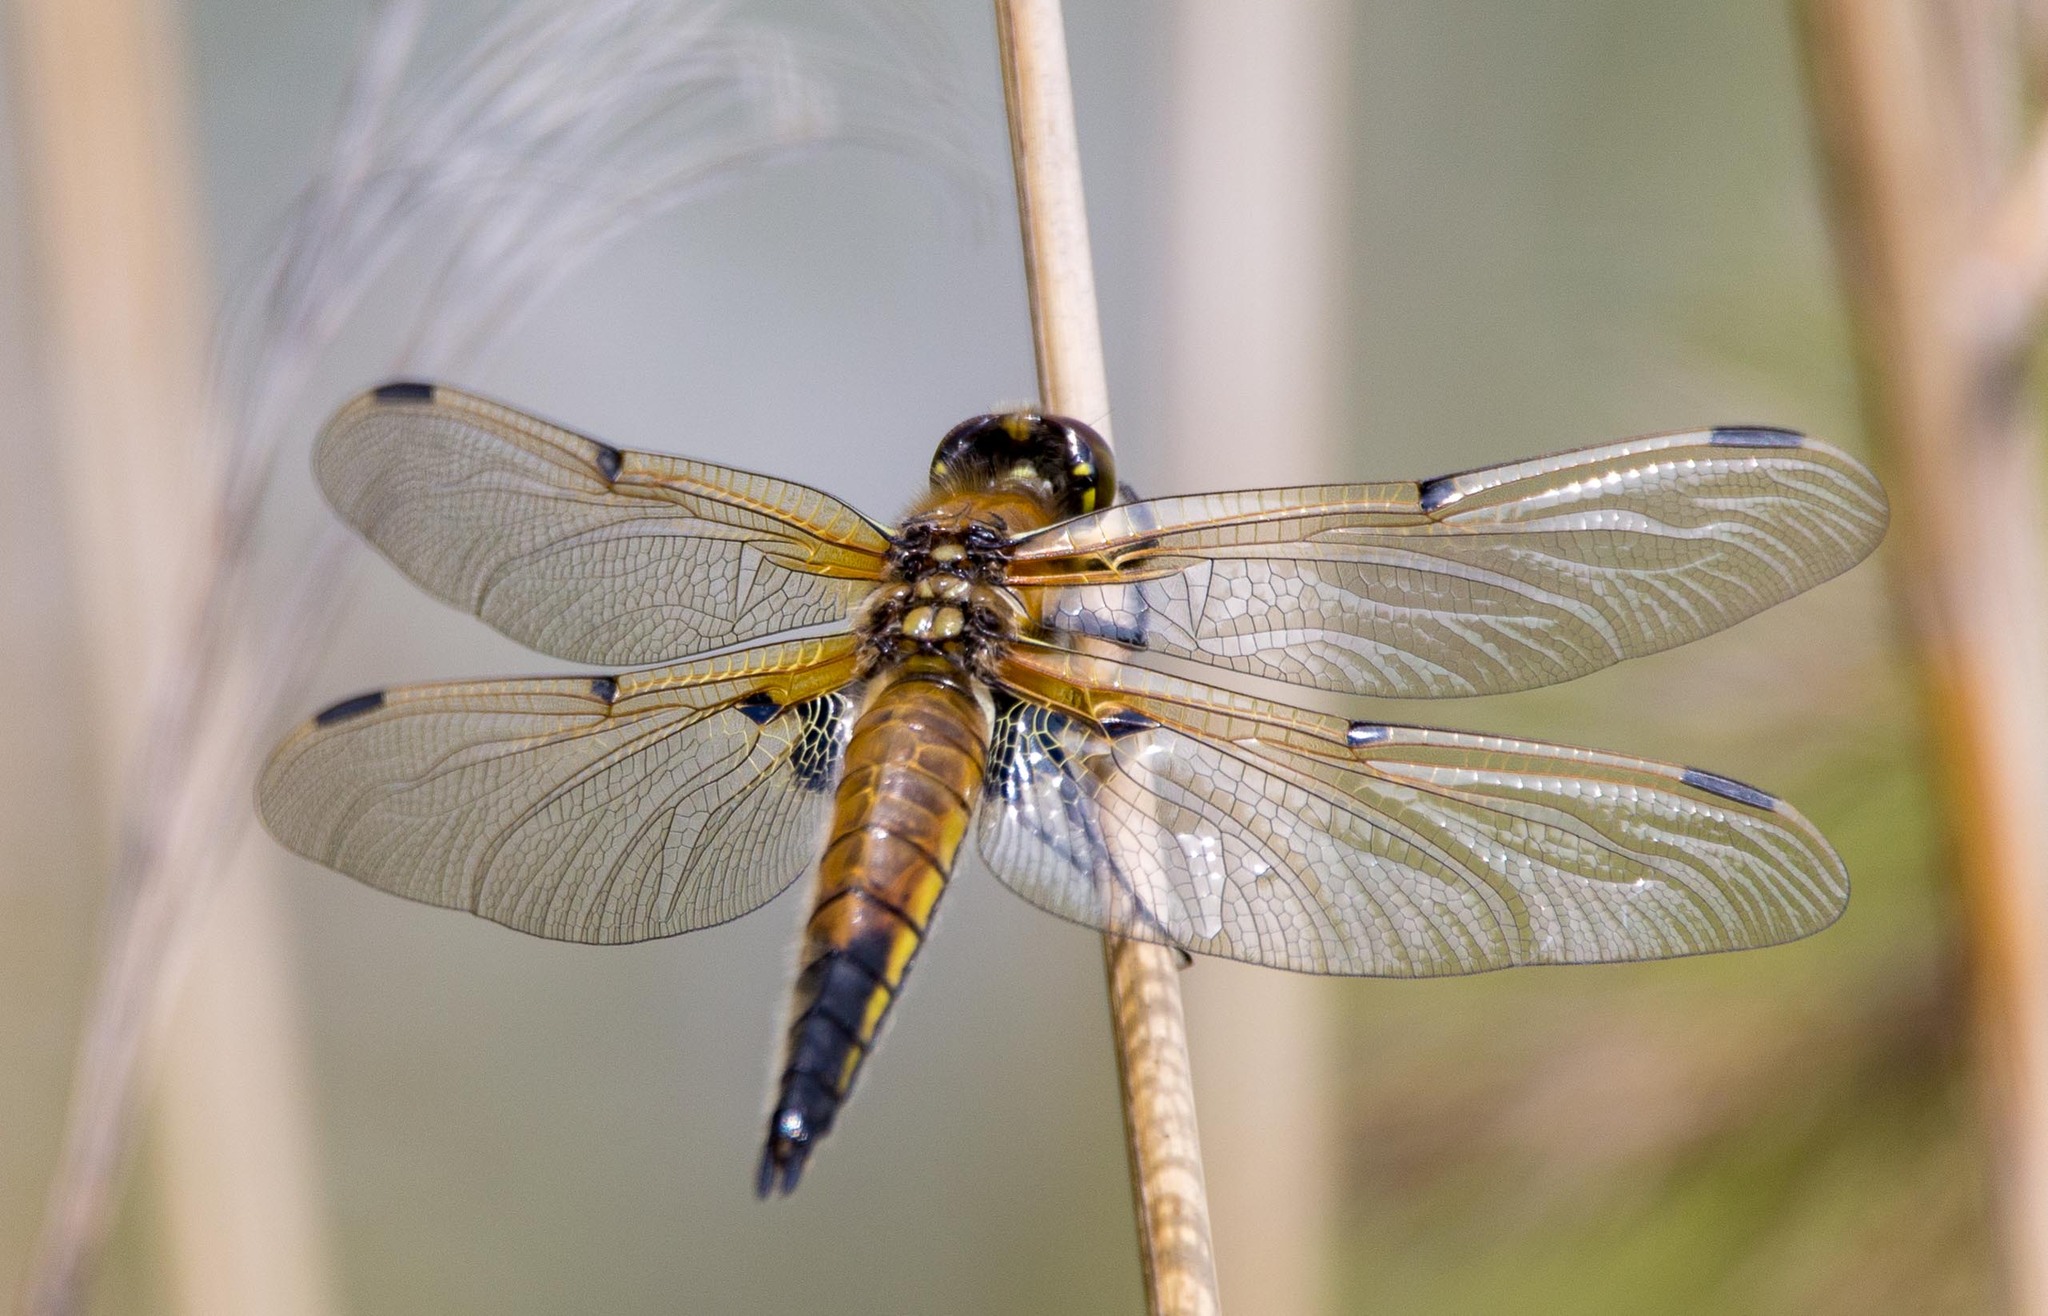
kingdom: Animalia
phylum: Arthropoda
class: Insecta
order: Odonata
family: Libellulidae
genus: Libellula
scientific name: Libellula quadrimaculata
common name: Four-spotted chaser
